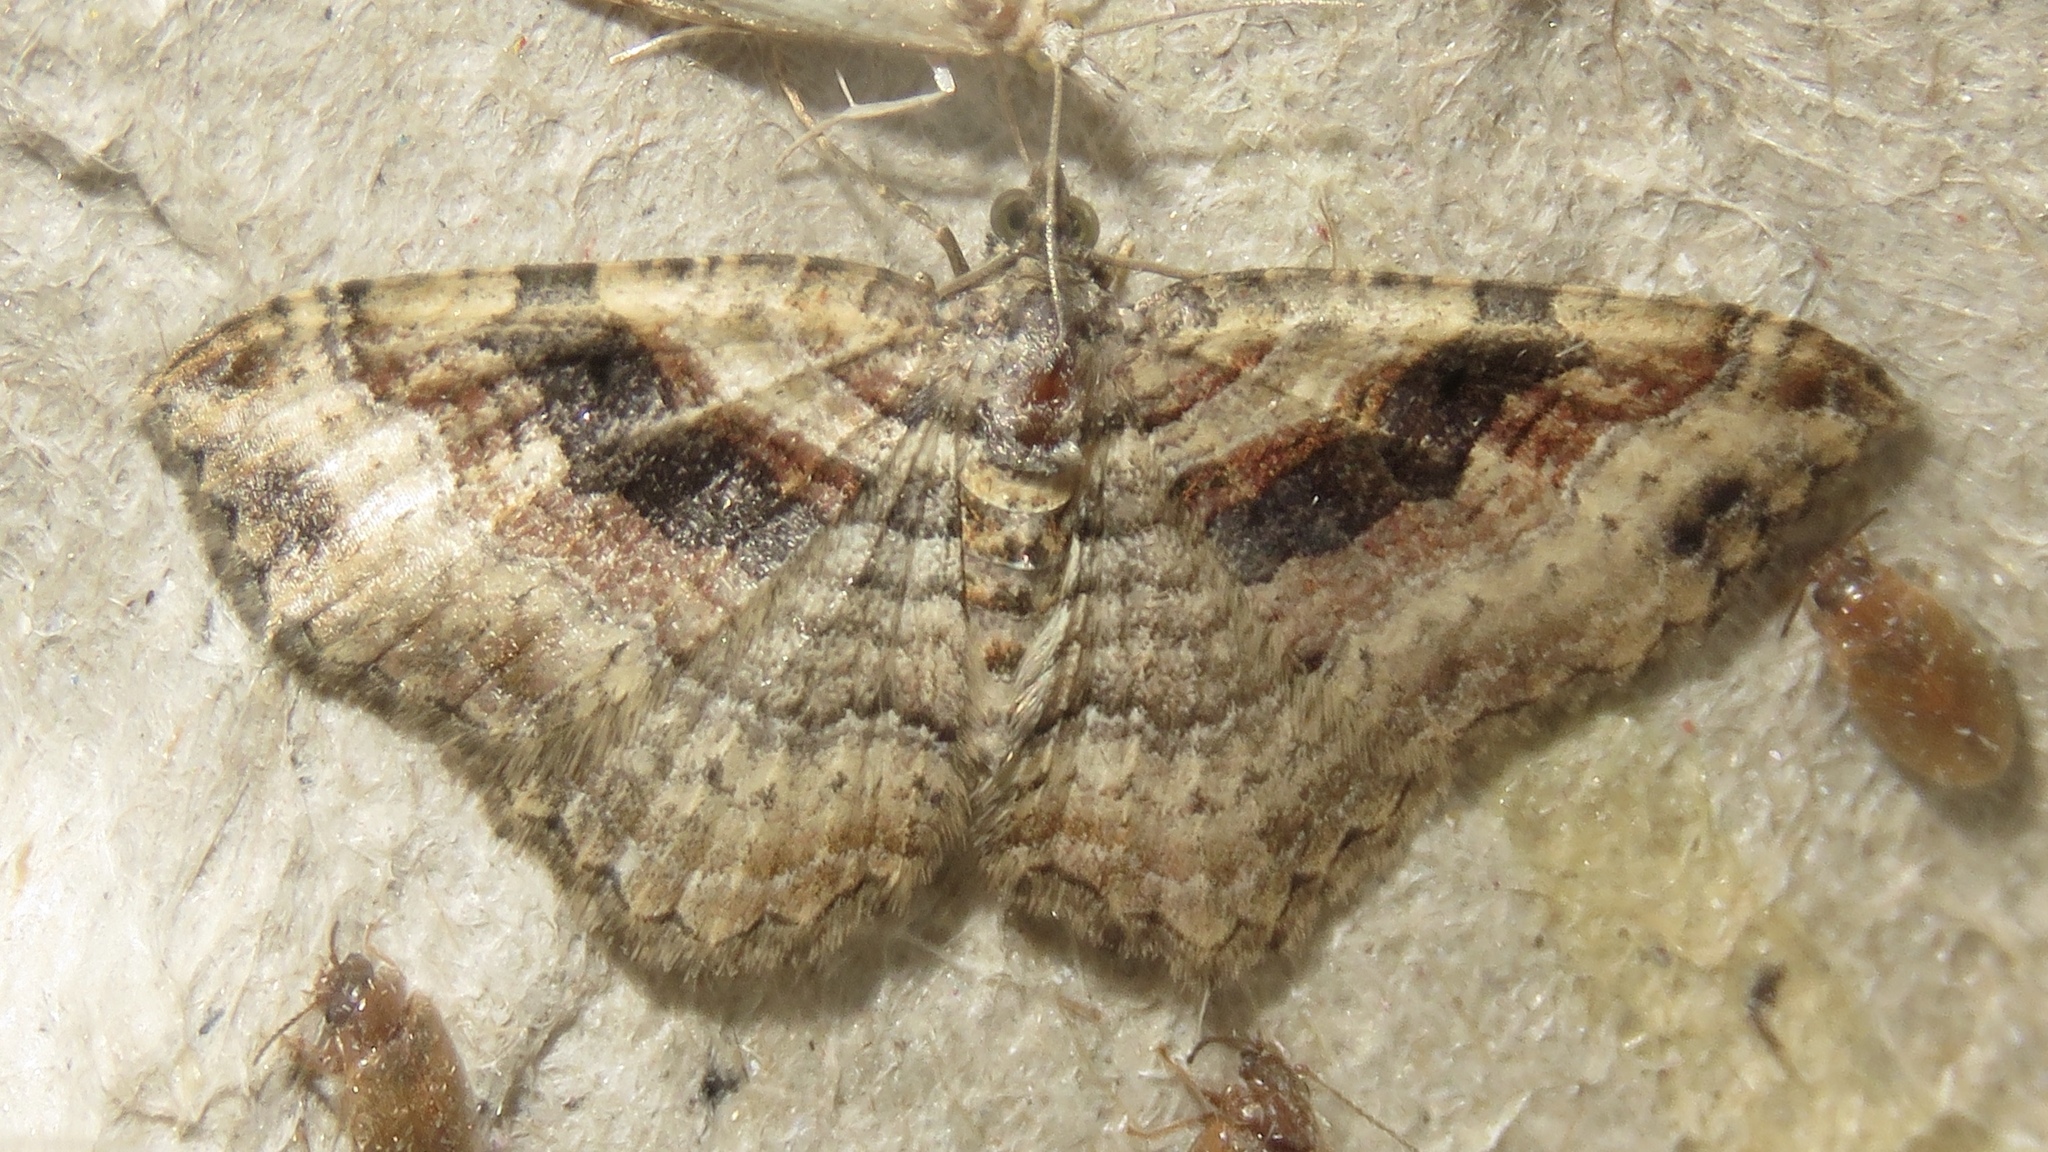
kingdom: Animalia
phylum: Arthropoda
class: Insecta
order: Lepidoptera
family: Geometridae
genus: Costaconvexa
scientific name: Costaconvexa centrostrigaria
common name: Bent-line carpet
